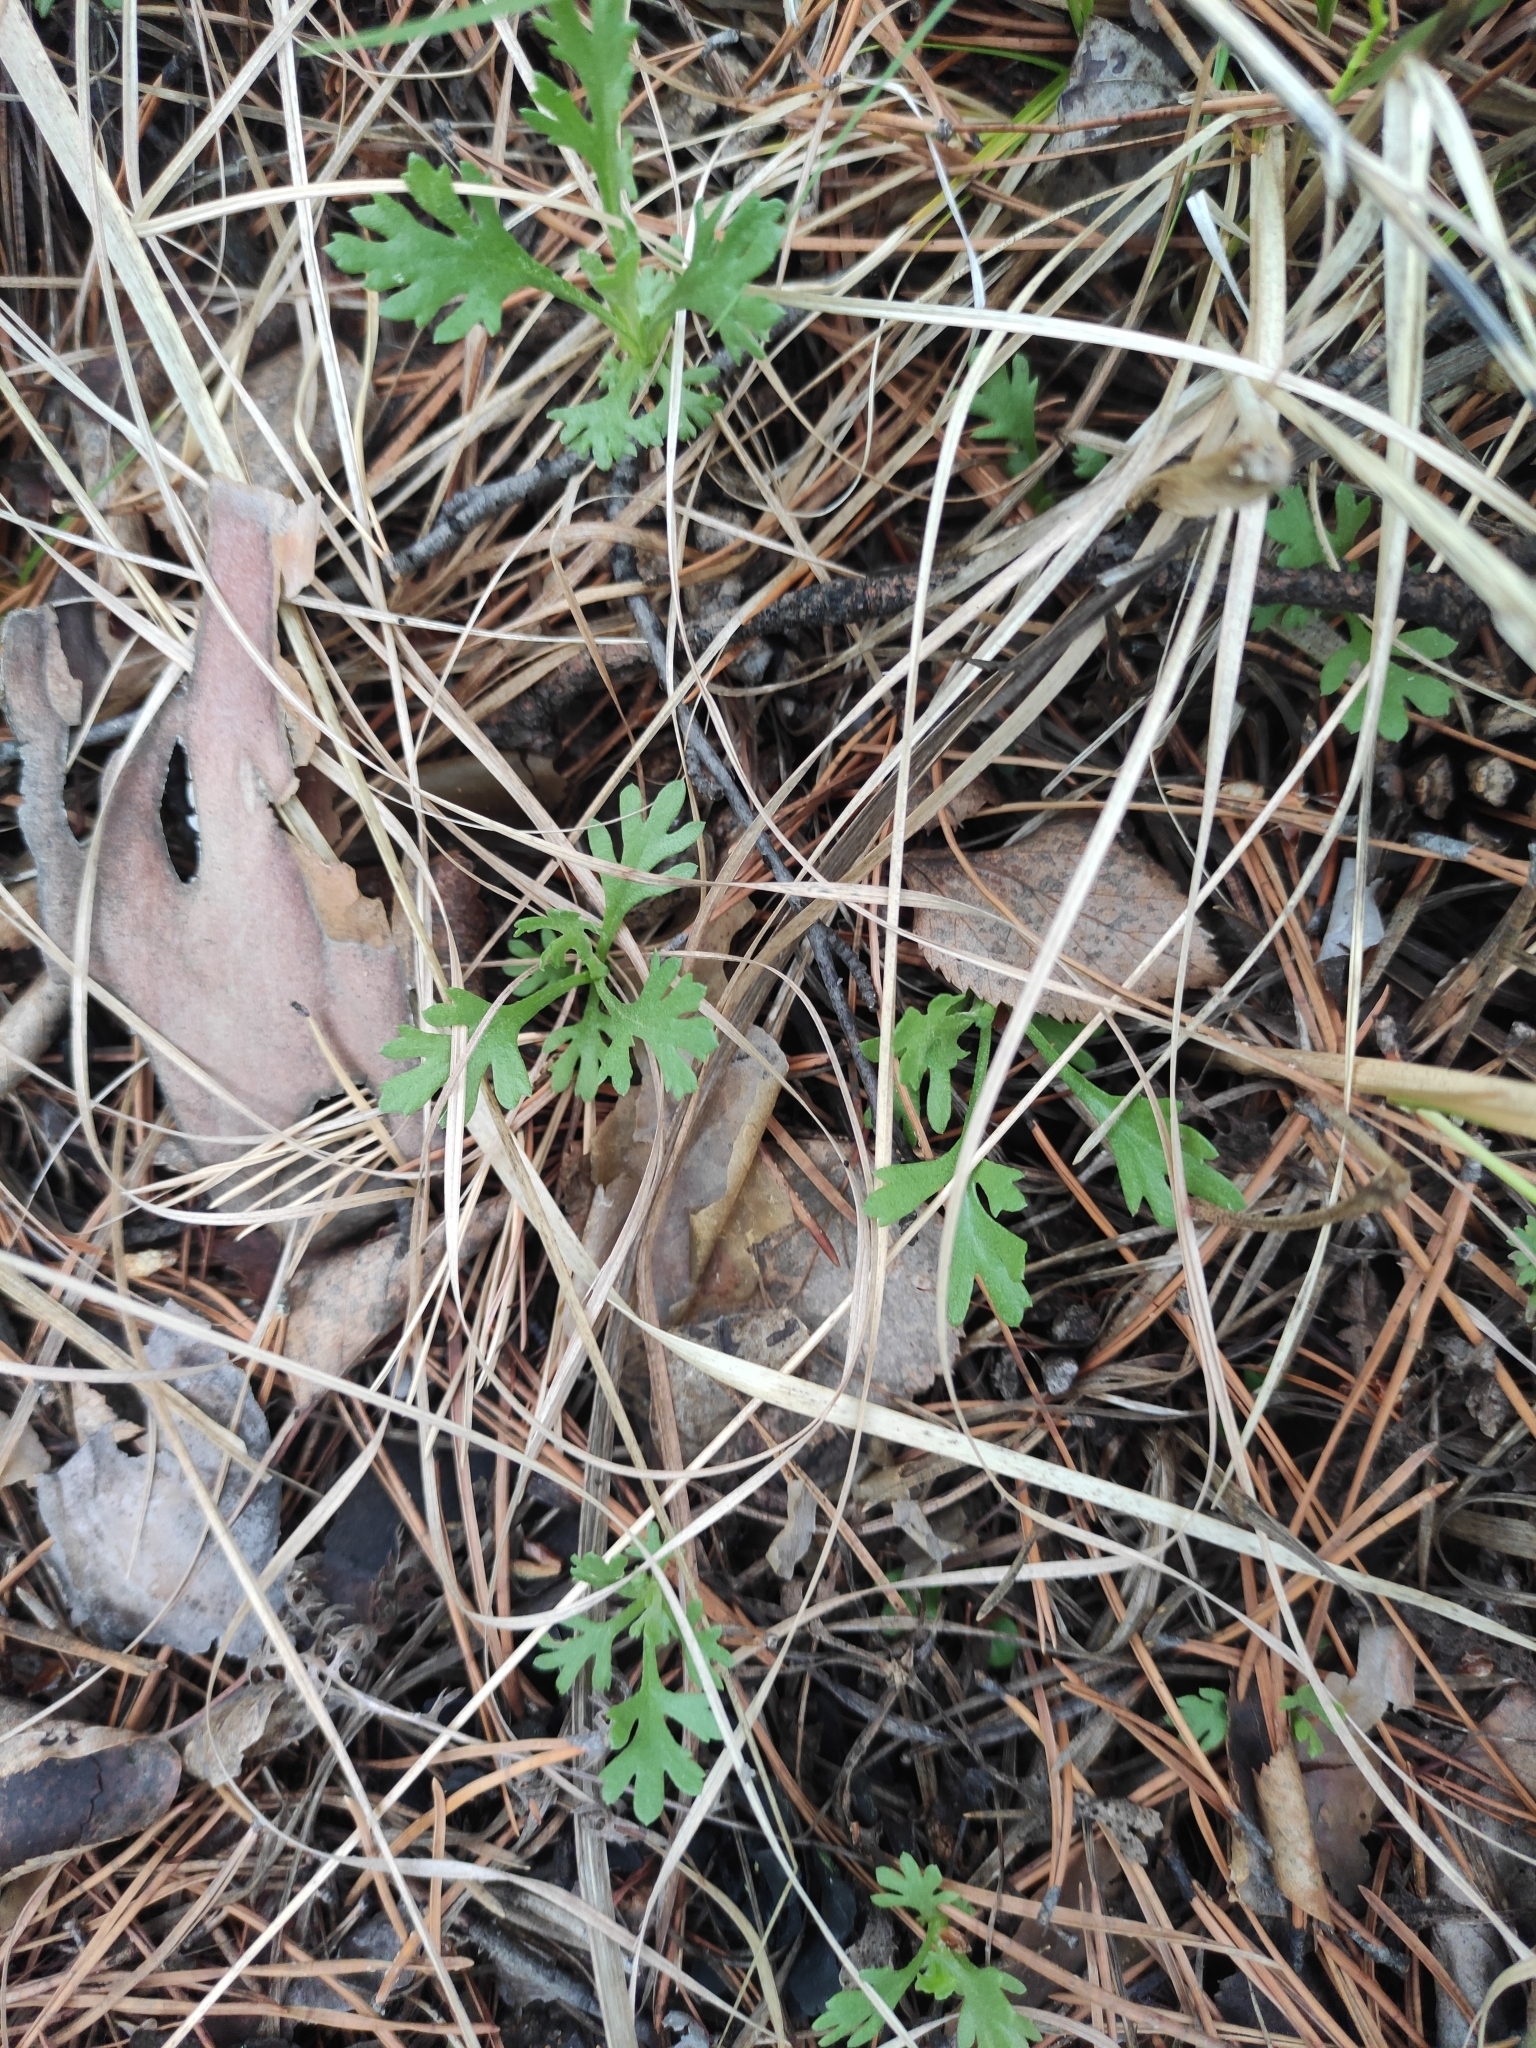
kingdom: Plantae
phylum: Tracheophyta
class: Magnoliopsida
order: Asterales
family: Asteraceae
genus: Chrysanthemum
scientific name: Chrysanthemum zawadzkii
